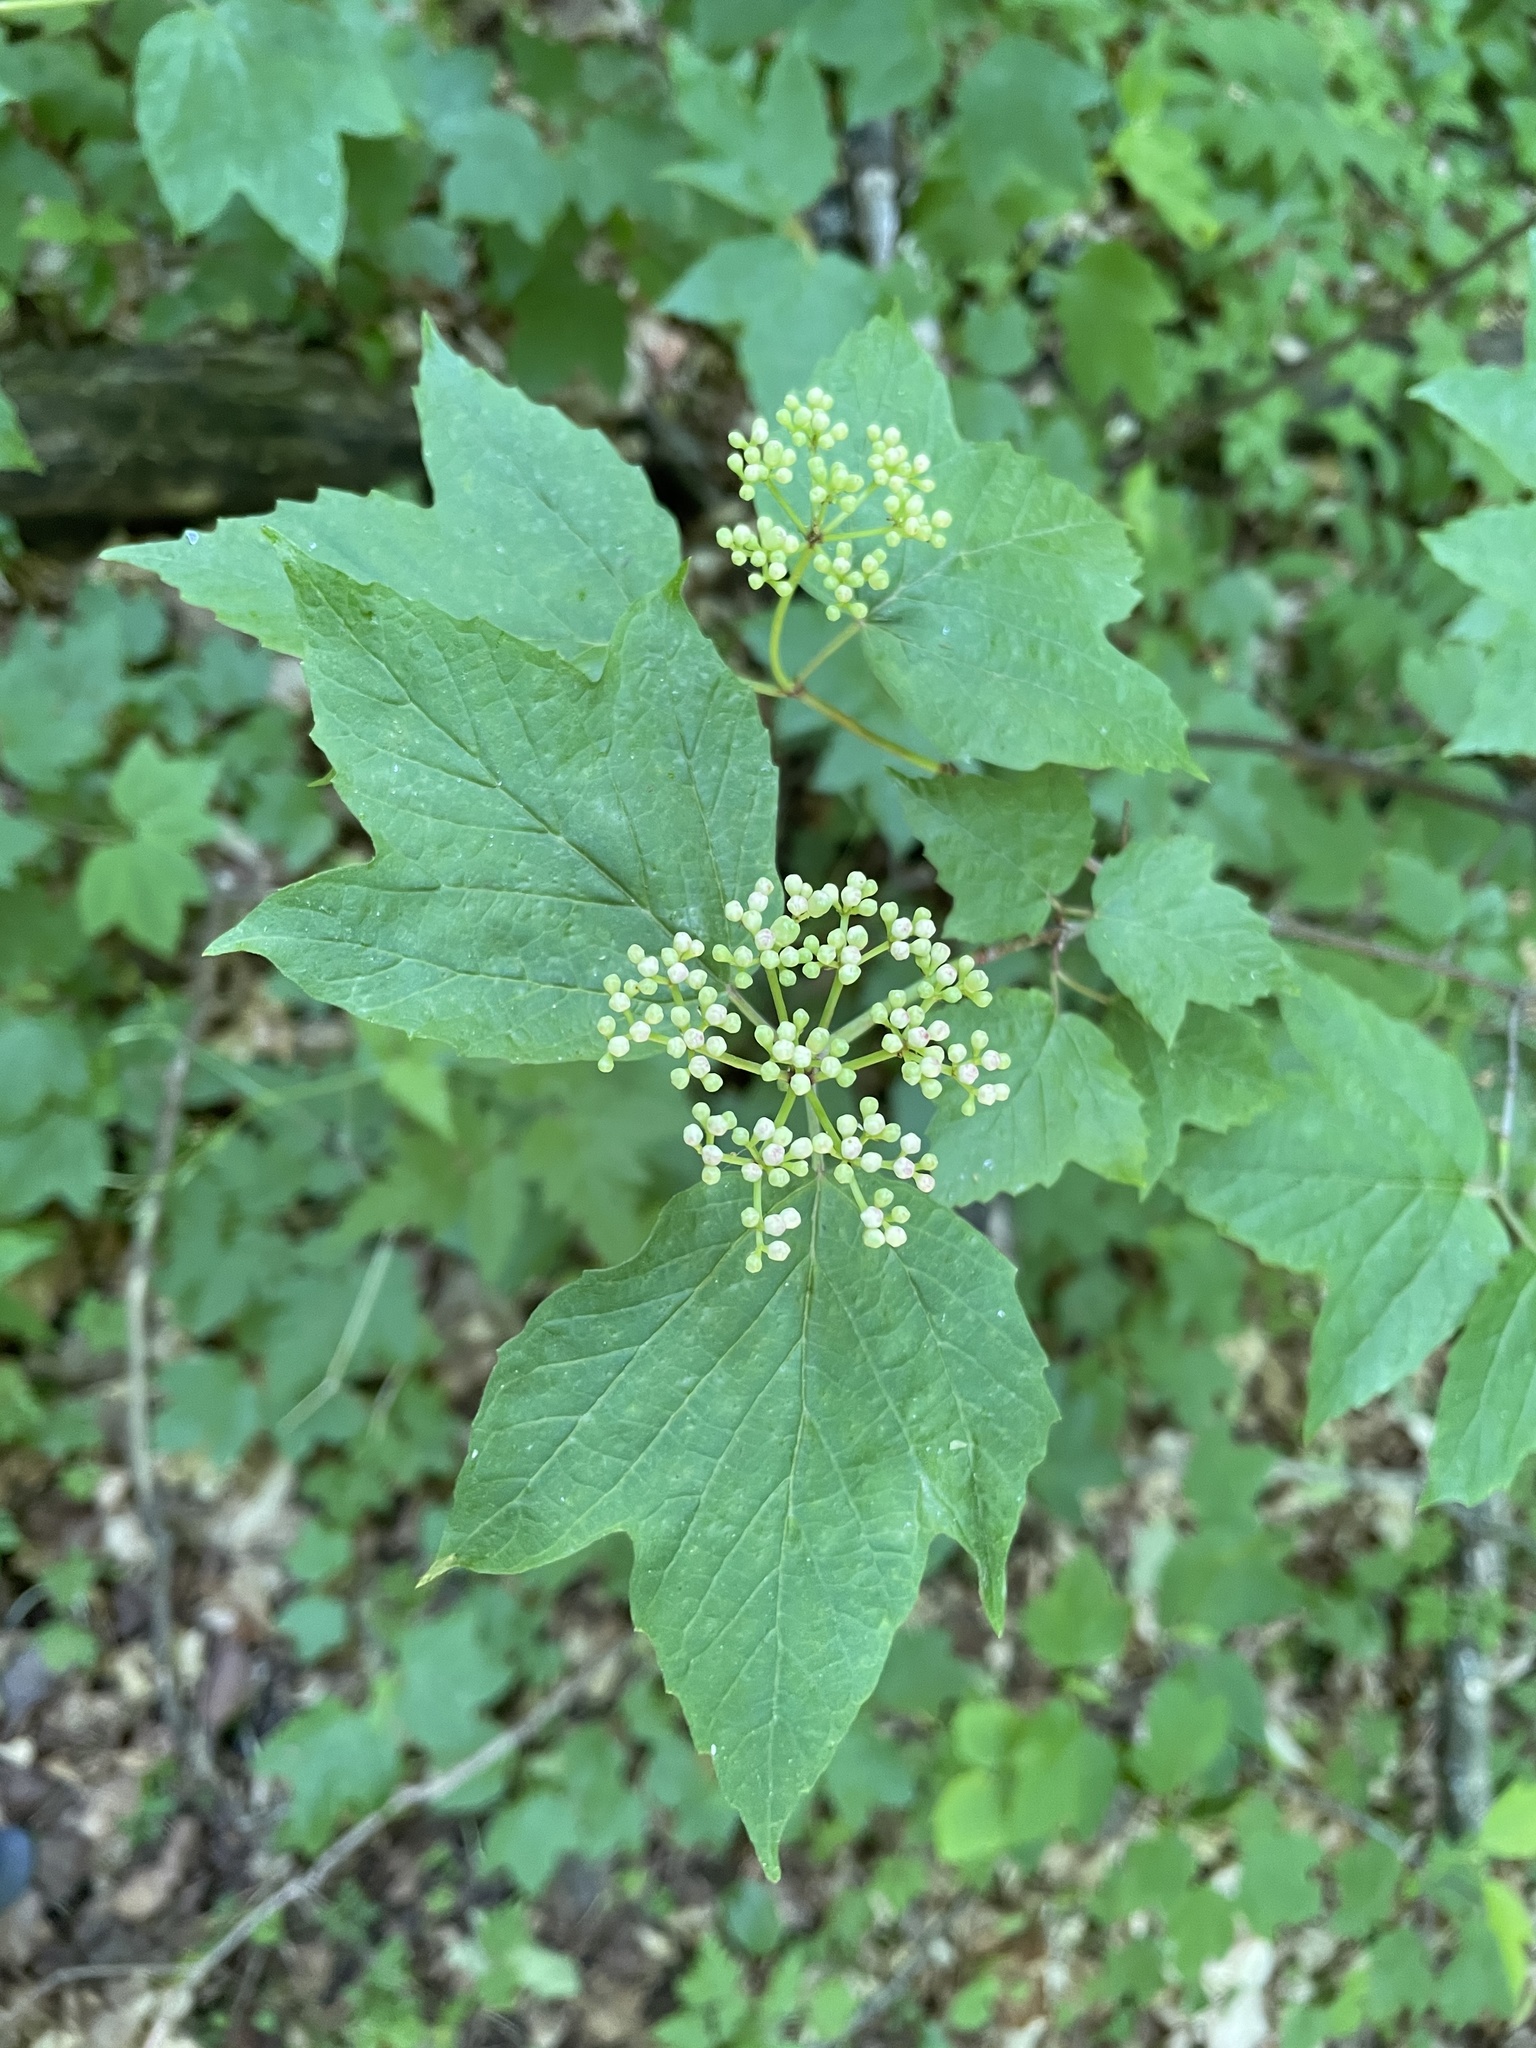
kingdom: Plantae
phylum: Tracheophyta
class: Magnoliopsida
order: Dipsacales
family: Viburnaceae
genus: Viburnum
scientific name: Viburnum acerifolium
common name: Dockmackie
